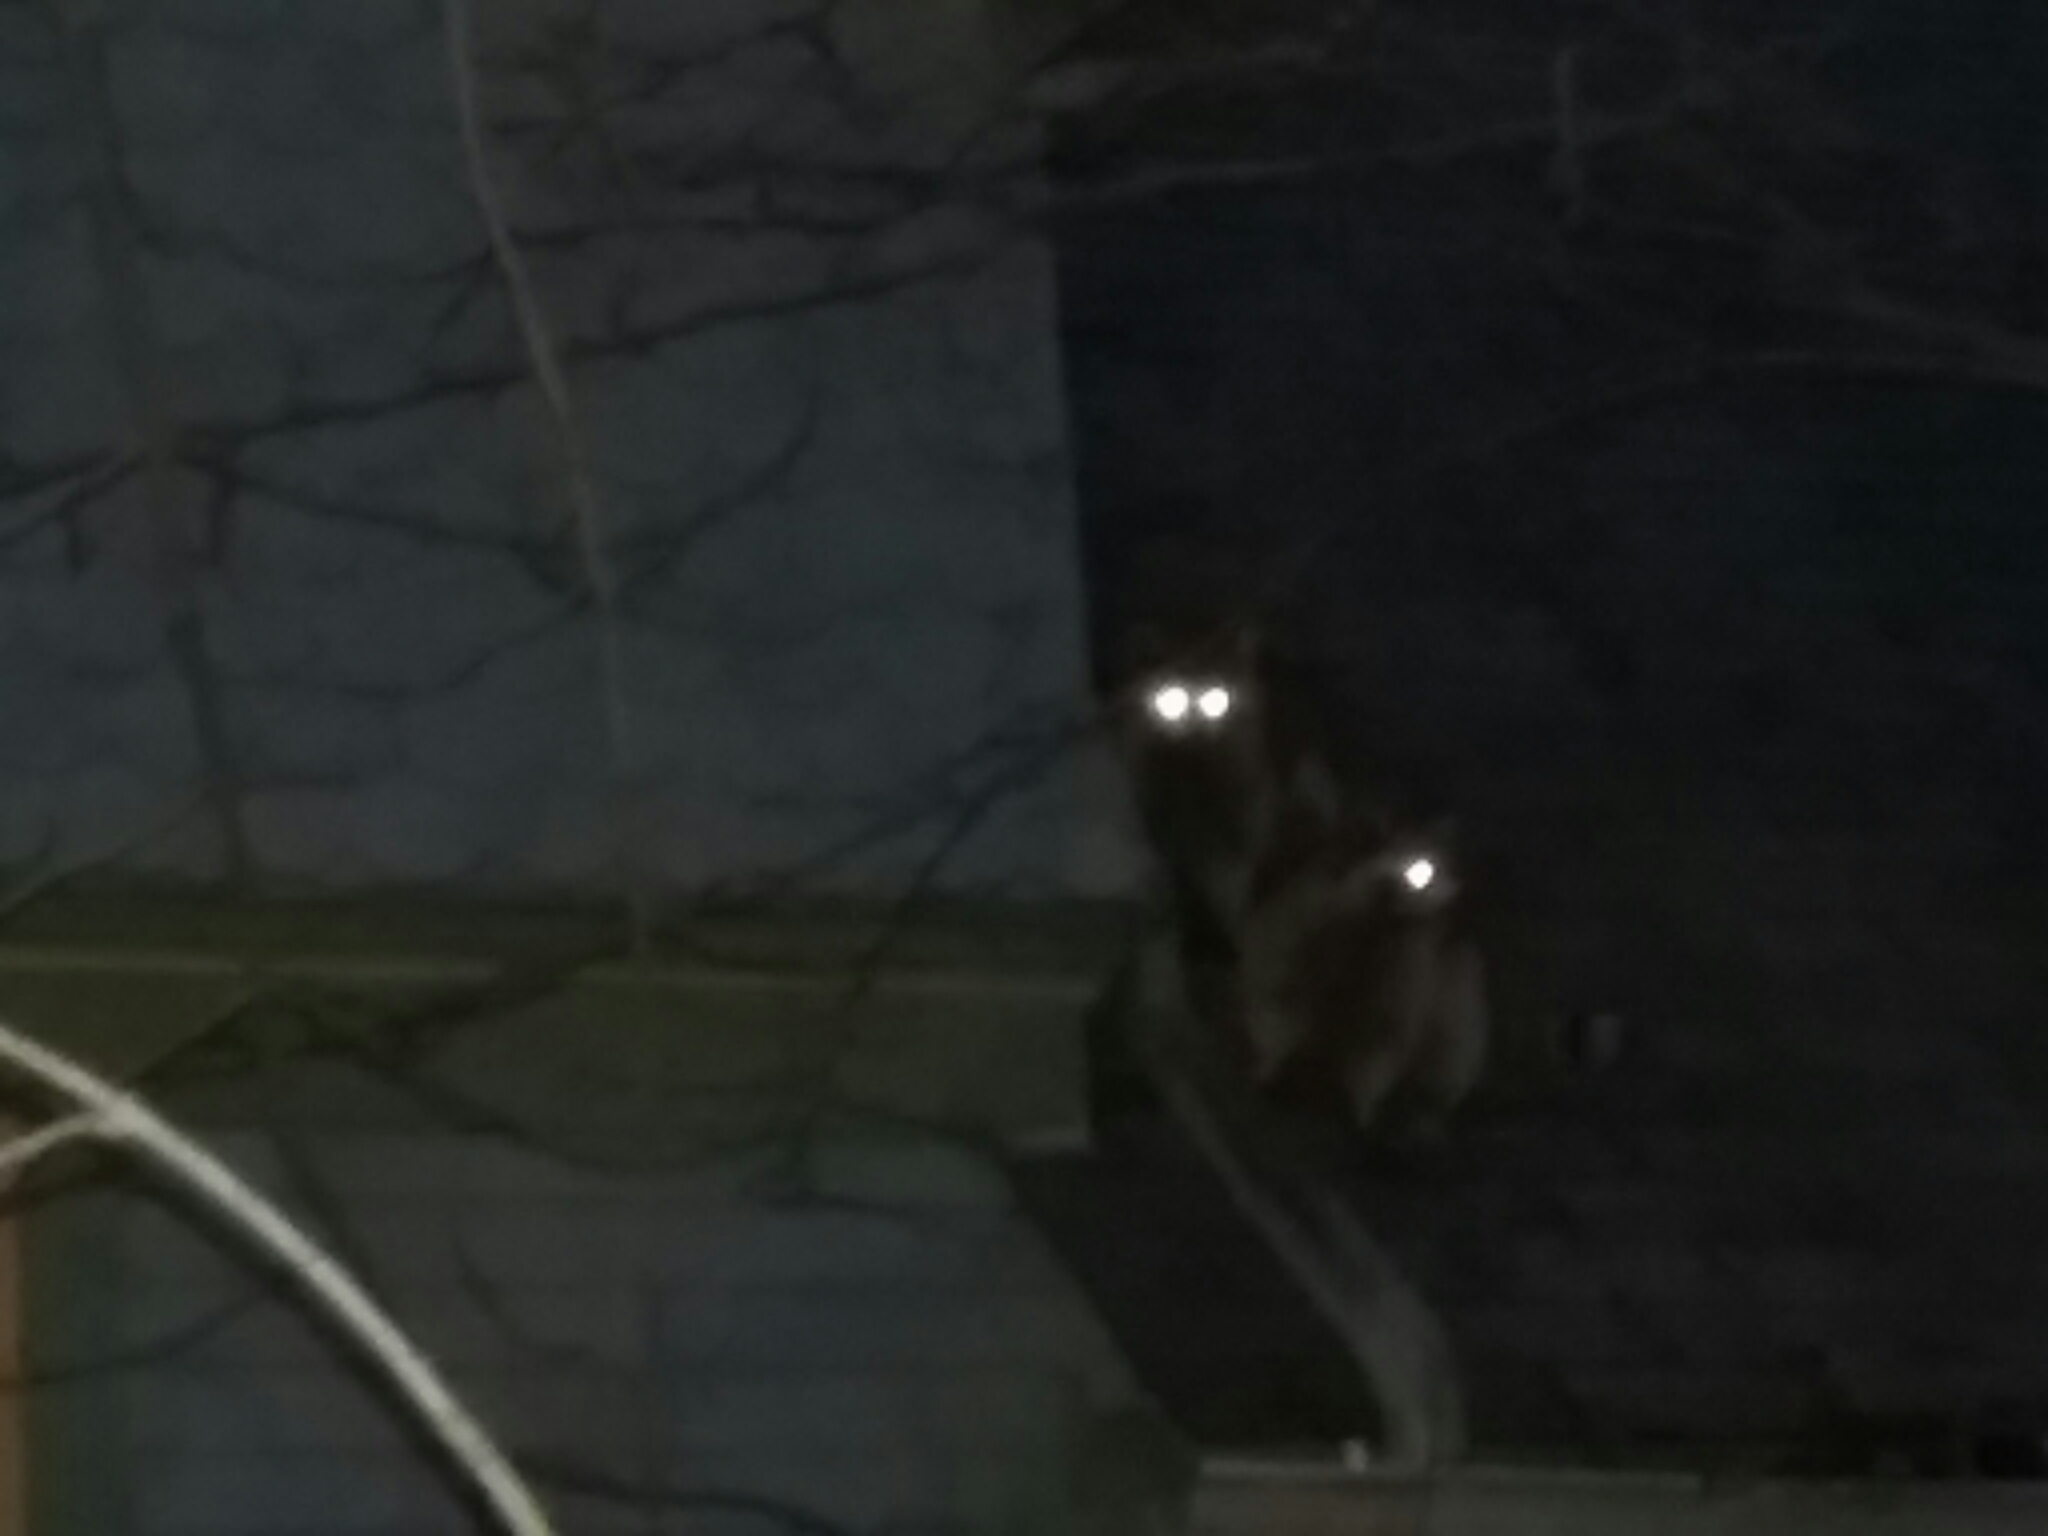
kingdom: Animalia
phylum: Chordata
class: Mammalia
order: Carnivora
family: Procyonidae
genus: Procyon
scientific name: Procyon lotor
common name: Raccoon
